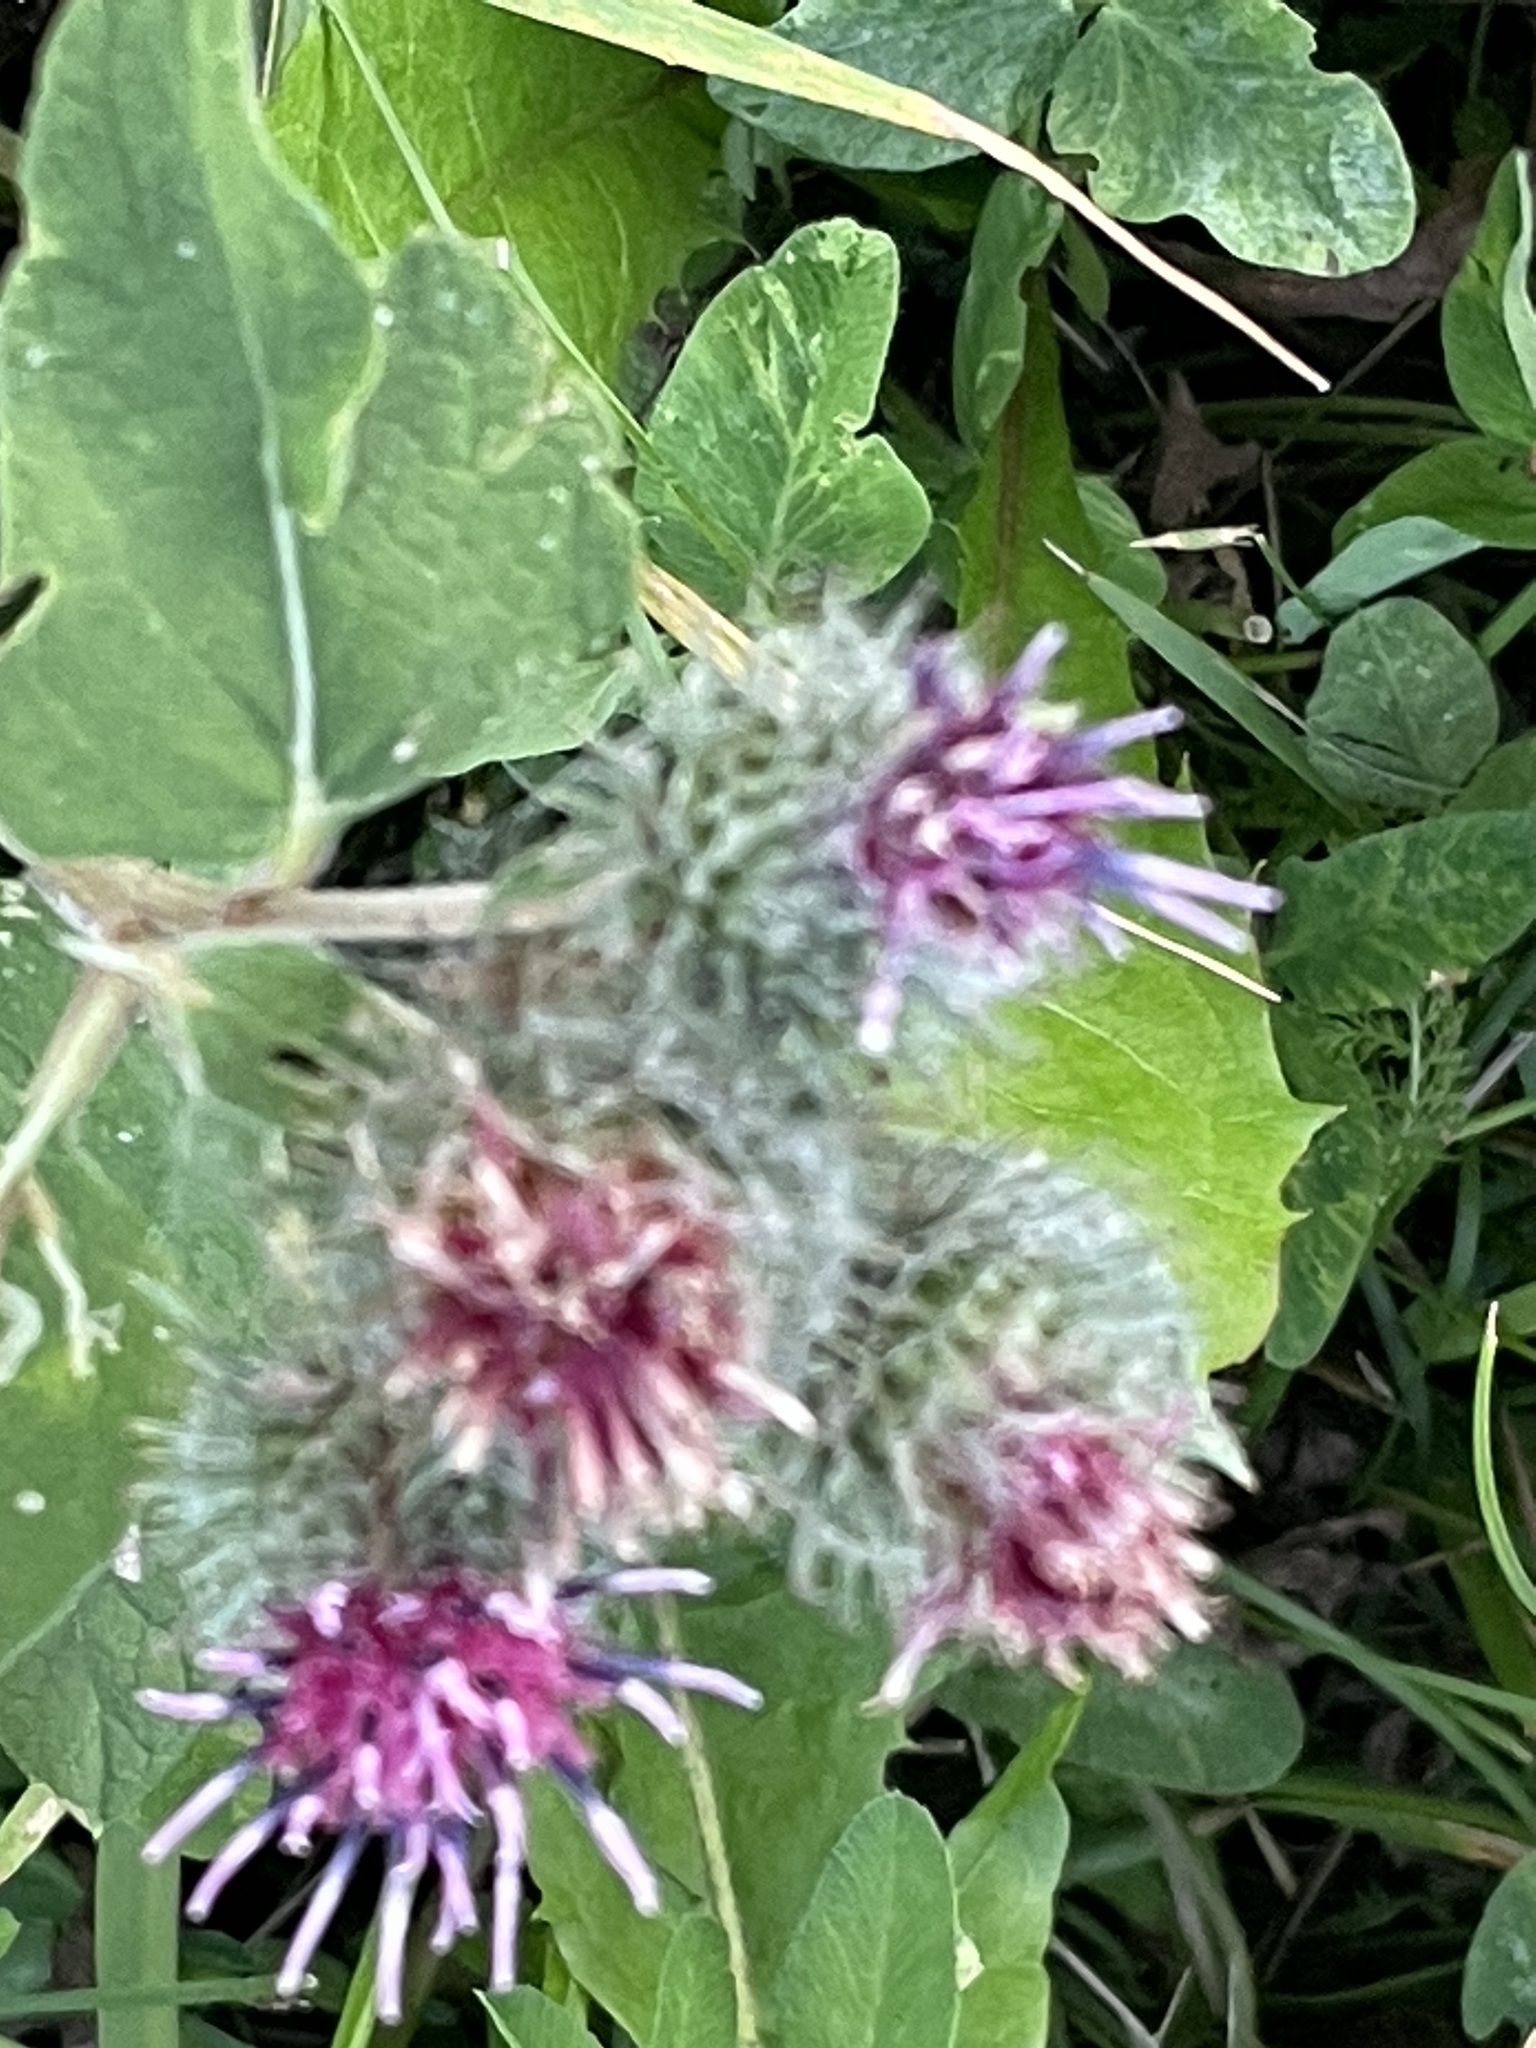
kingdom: Plantae
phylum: Tracheophyta
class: Magnoliopsida
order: Asterales
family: Asteraceae
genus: Arctium
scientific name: Arctium tomentosum
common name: Woolly burdock
